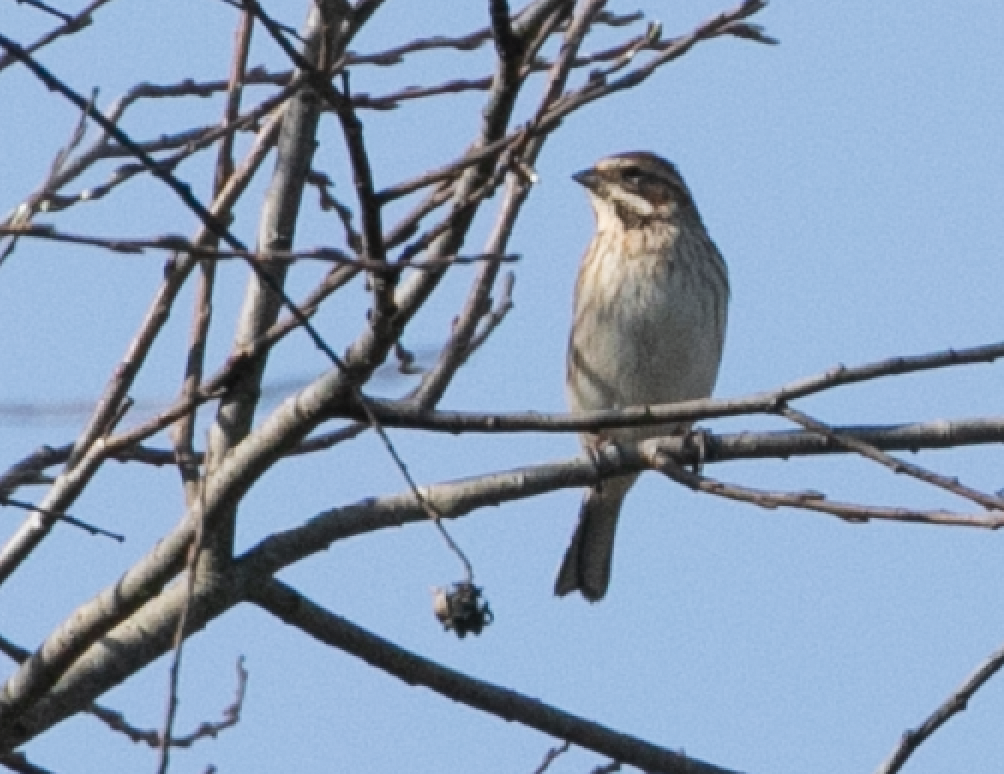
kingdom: Animalia
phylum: Chordata
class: Aves
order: Passeriformes
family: Emberizidae
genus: Emberiza
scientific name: Emberiza schoeniclus
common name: Reed bunting
